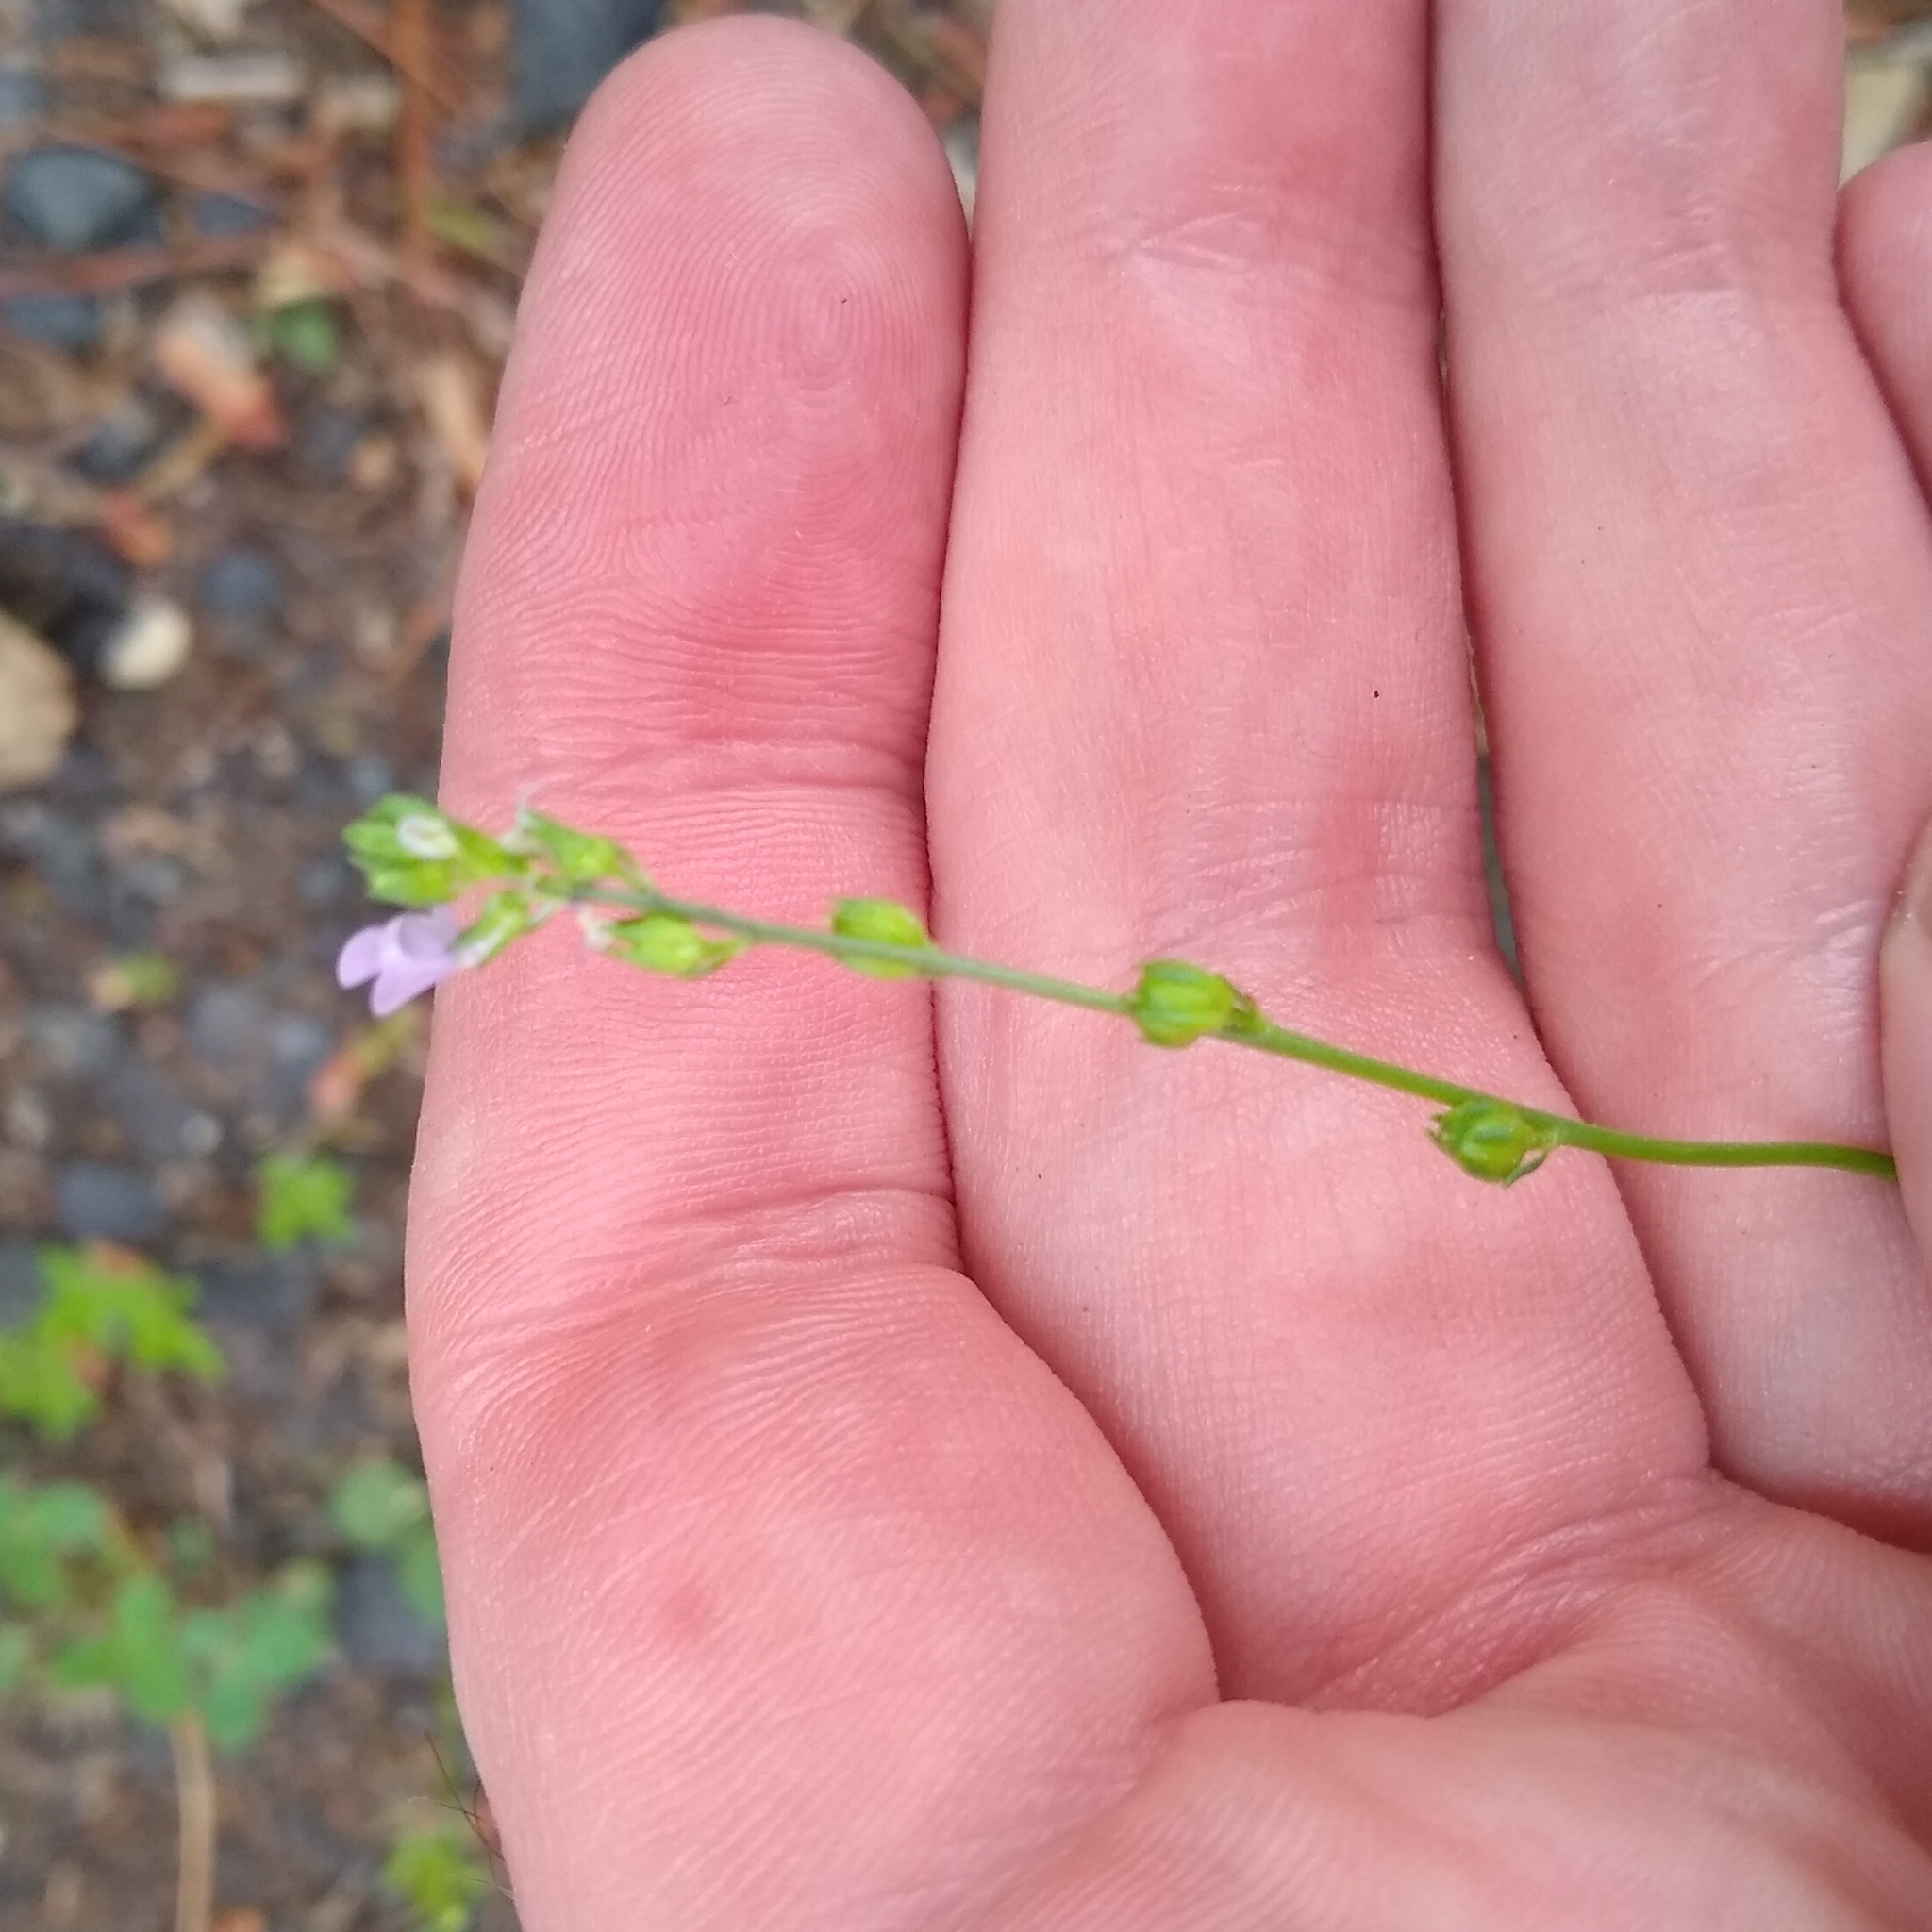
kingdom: Plantae
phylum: Tracheophyta
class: Magnoliopsida
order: Lamiales
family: Plantaginaceae
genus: Nuttallanthus
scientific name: Nuttallanthus canadensis
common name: Blue toadflax
